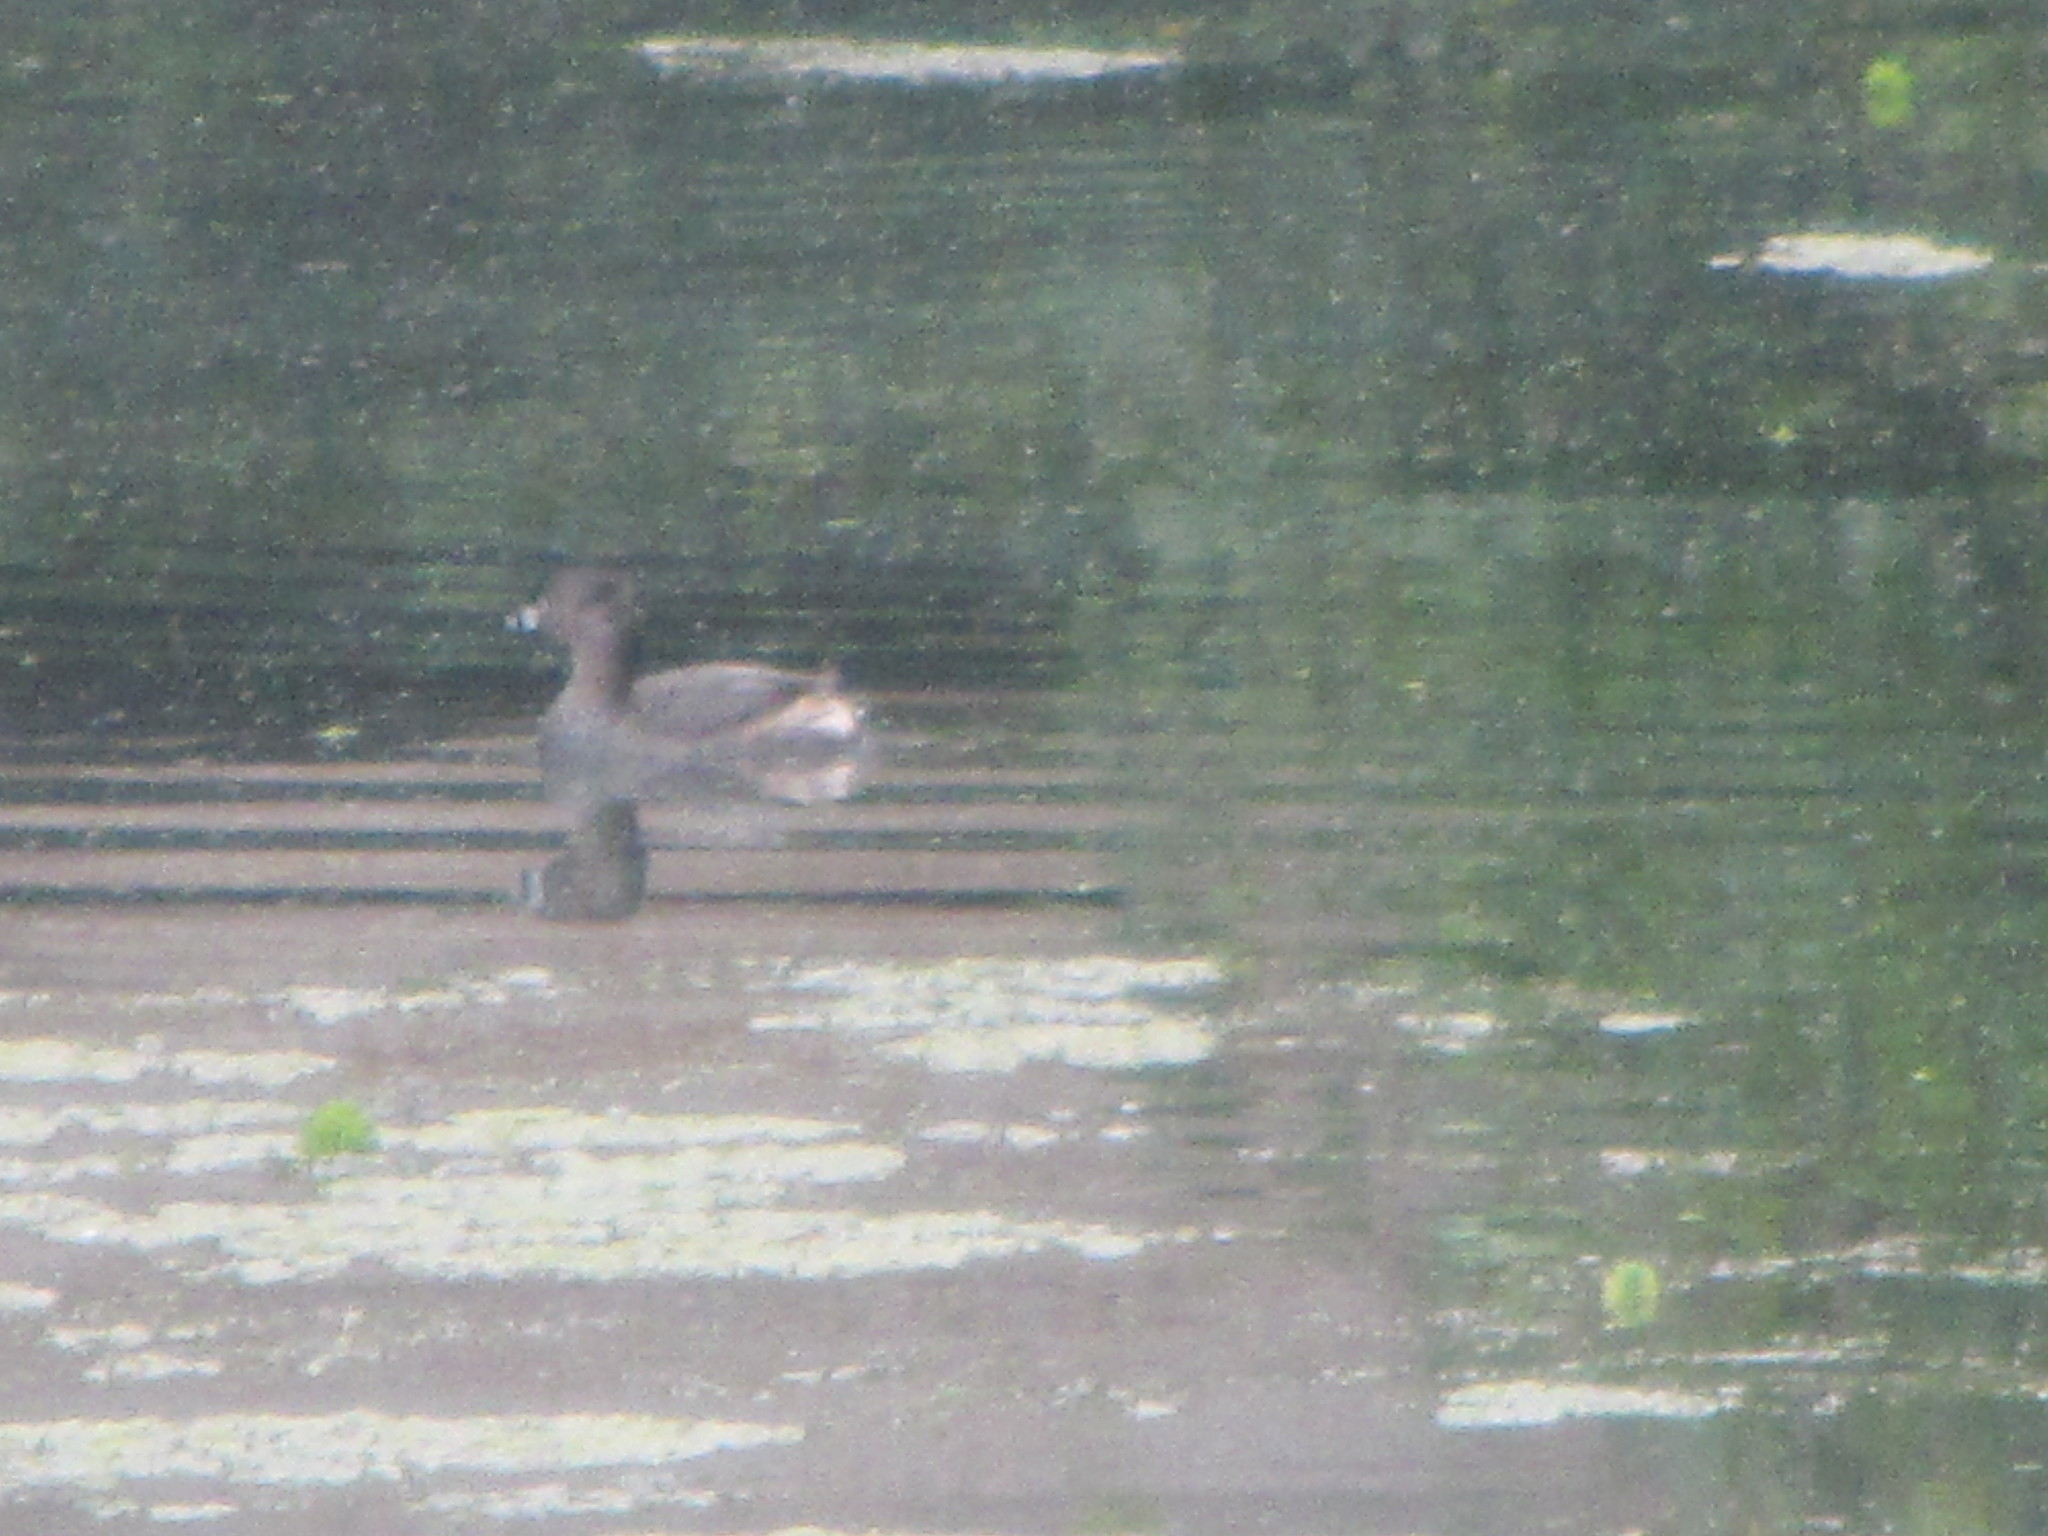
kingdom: Animalia
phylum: Chordata
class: Aves
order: Podicipediformes
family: Podicipedidae
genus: Podilymbus
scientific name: Podilymbus podiceps
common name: Pied-billed grebe
